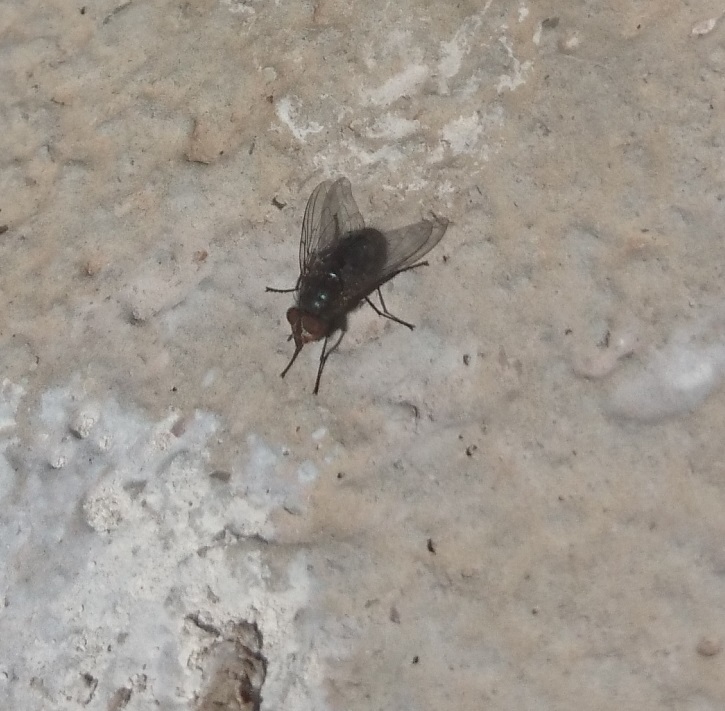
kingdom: Animalia
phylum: Arthropoda
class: Insecta
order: Diptera
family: Calliphoridae
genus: Calliphora
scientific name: Calliphora vicina
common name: Common blow flie
